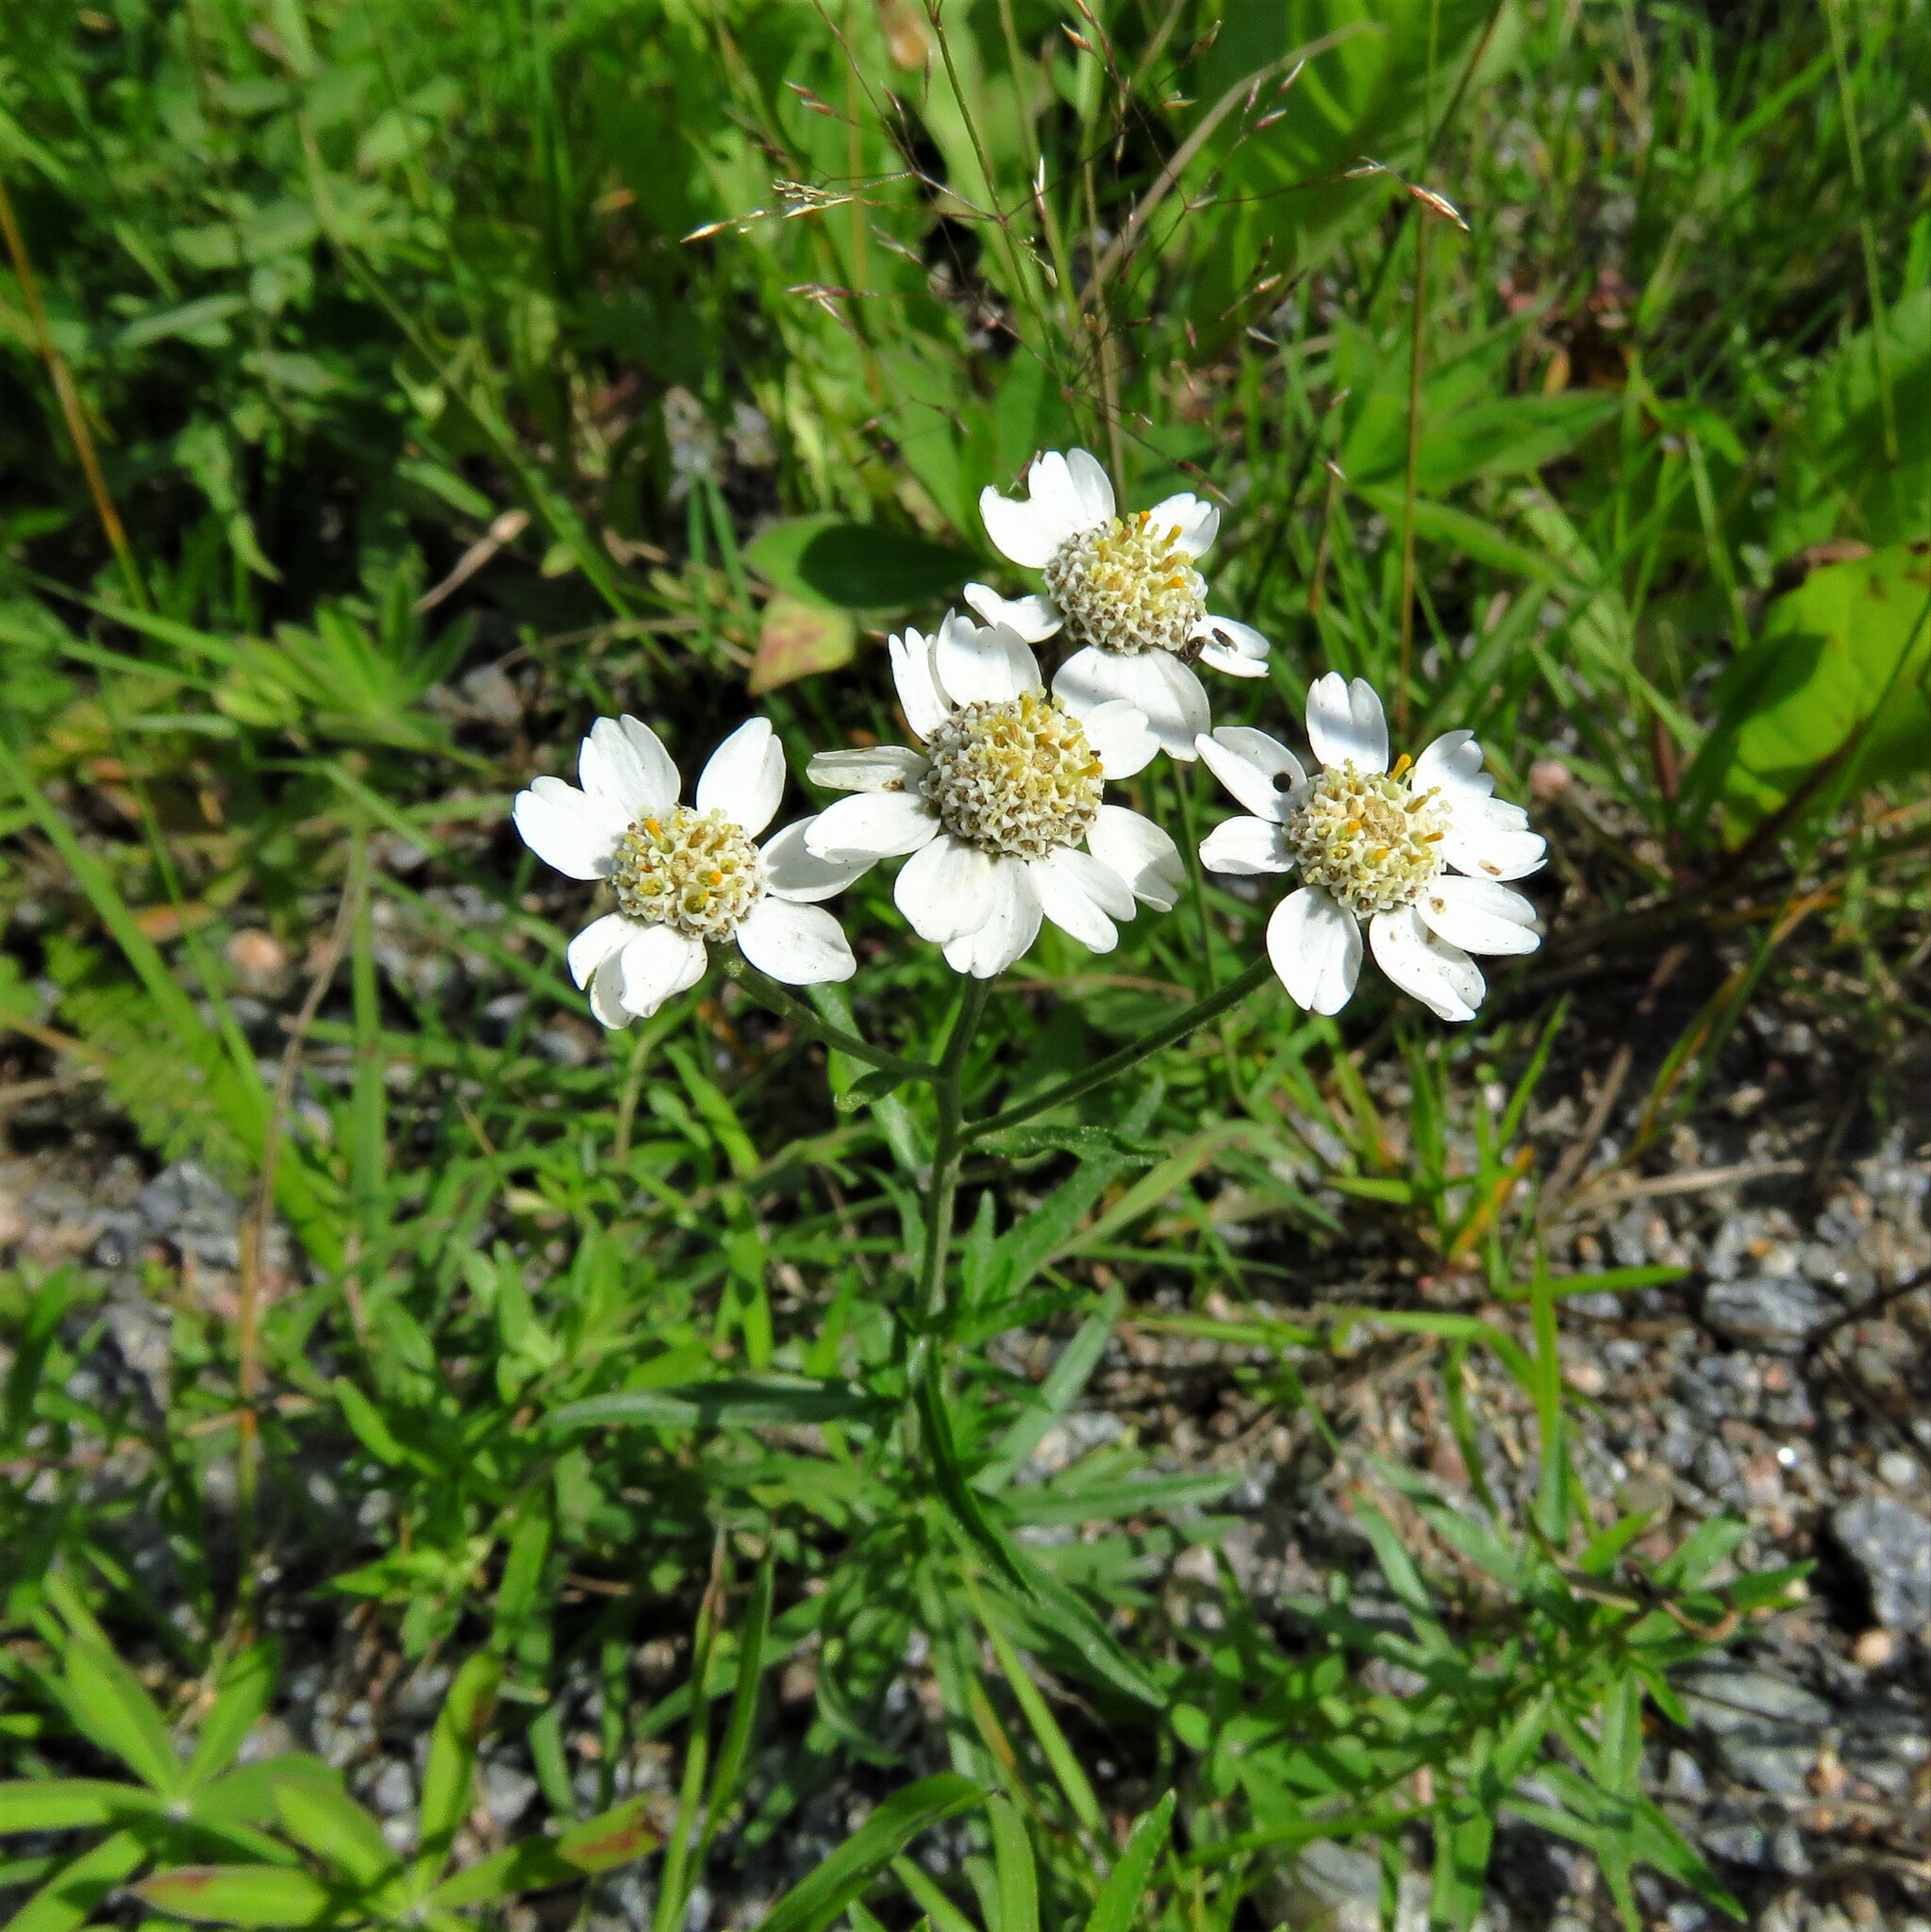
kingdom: Plantae
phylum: Tracheophyta
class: Magnoliopsida
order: Asterales
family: Asteraceae
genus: Achillea
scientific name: Achillea ptarmica
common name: Sneezeweed
